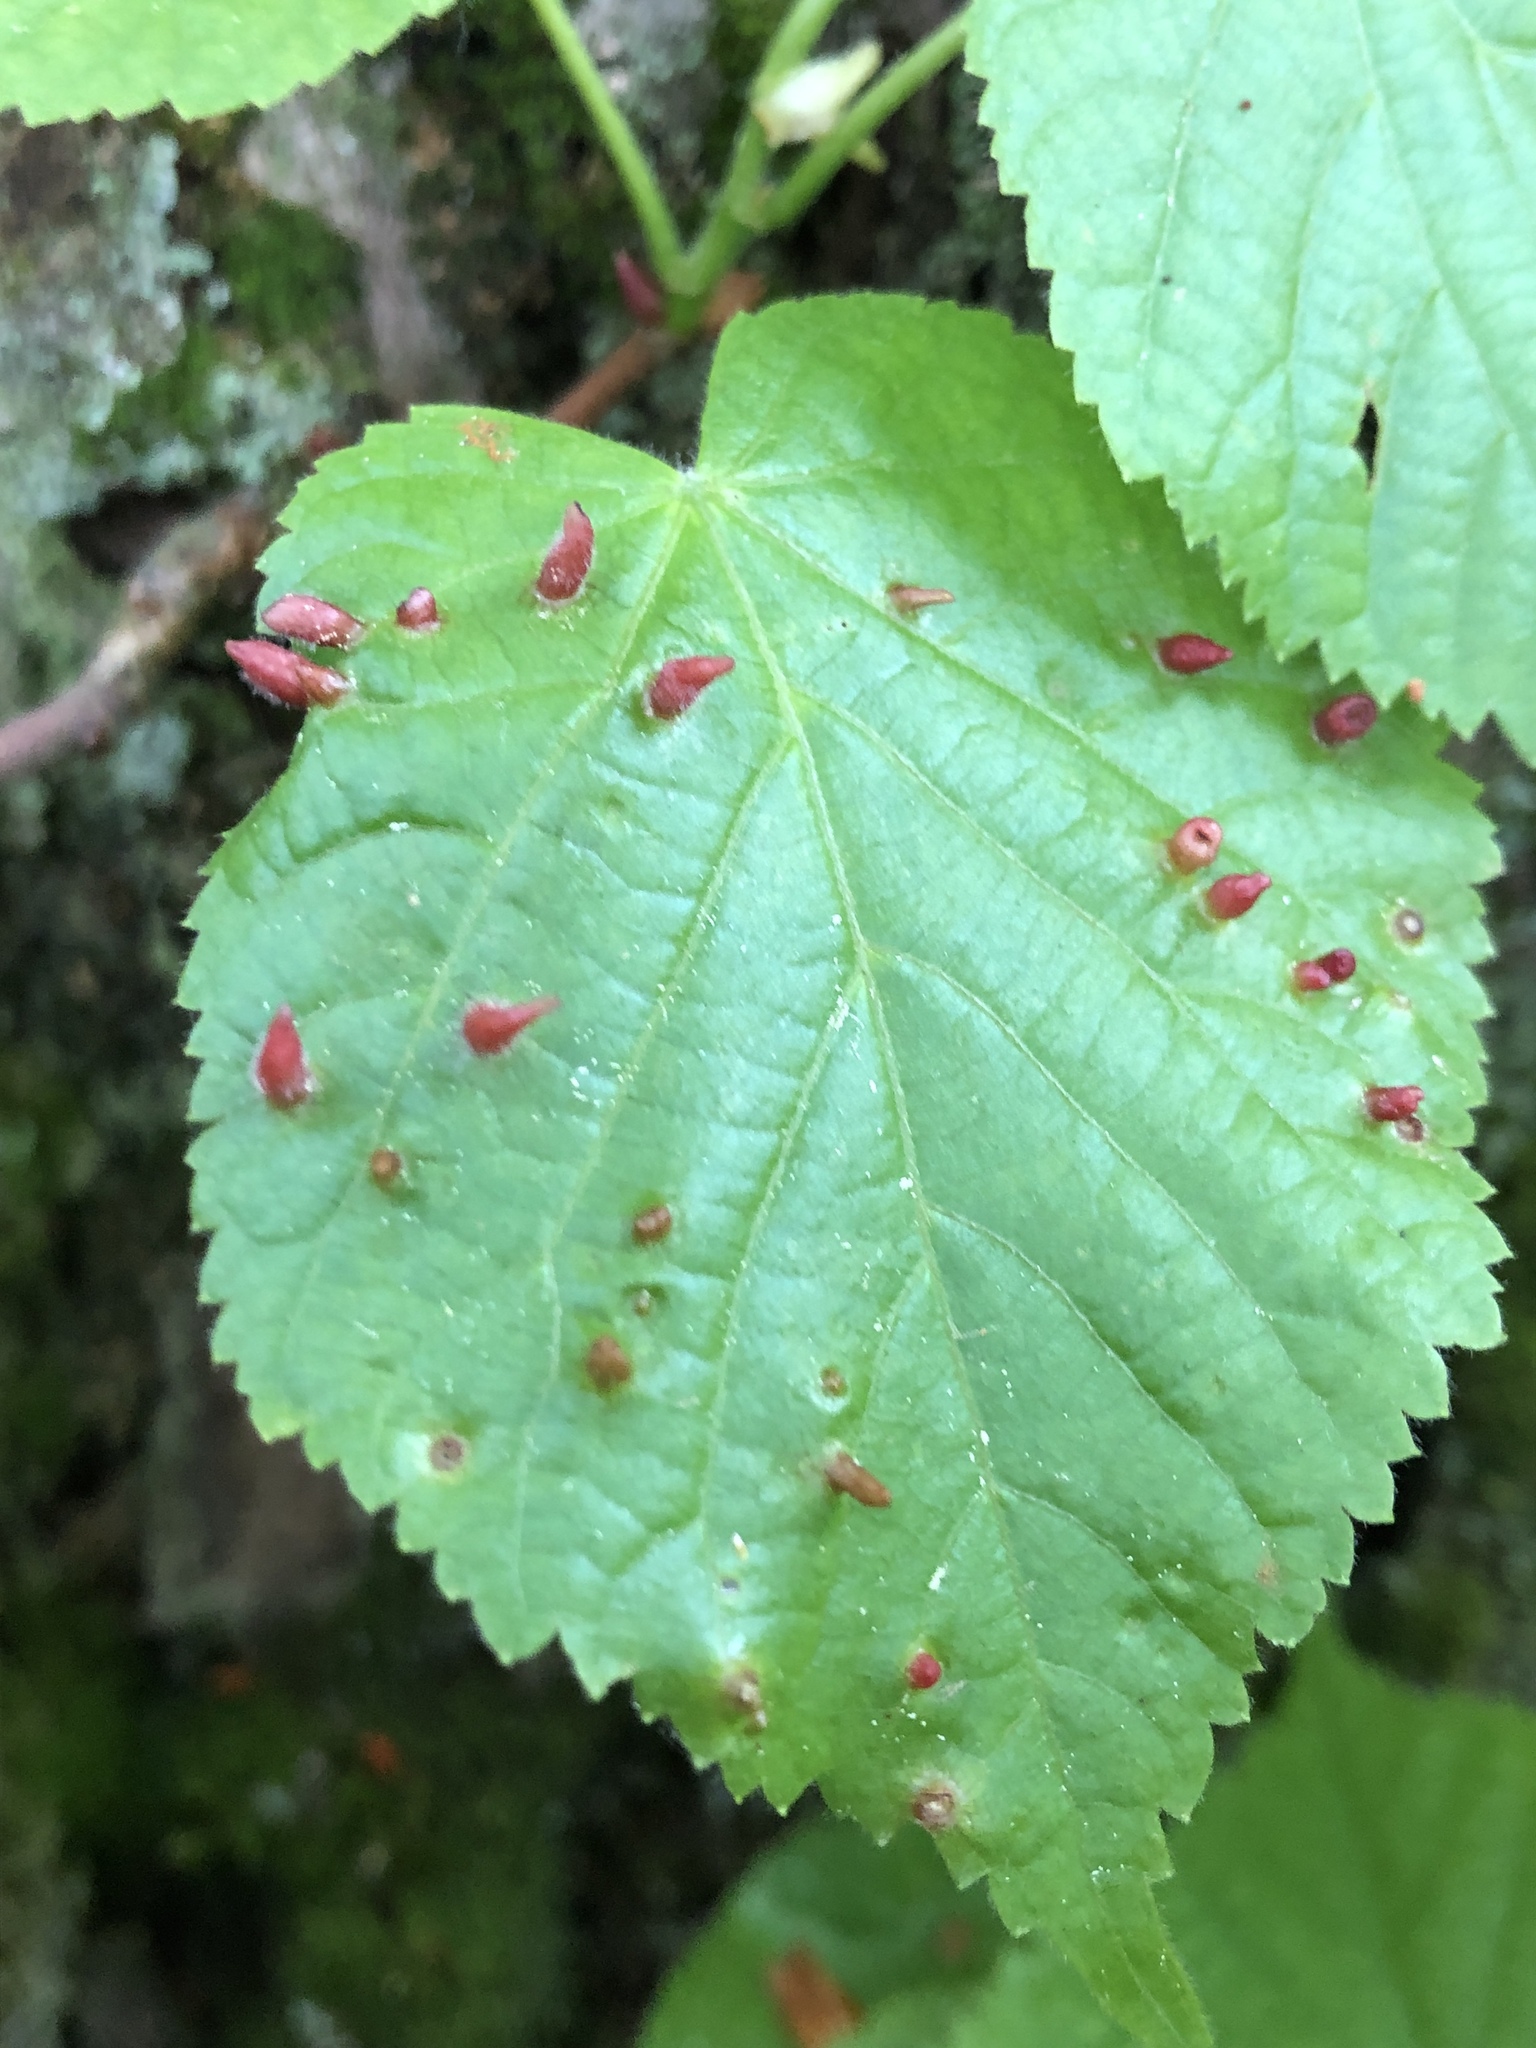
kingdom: Animalia
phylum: Arthropoda
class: Arachnida
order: Trombidiformes
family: Eriophyidae
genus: Eriophyes
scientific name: Eriophyes tiliae
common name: Red nail gall mite
